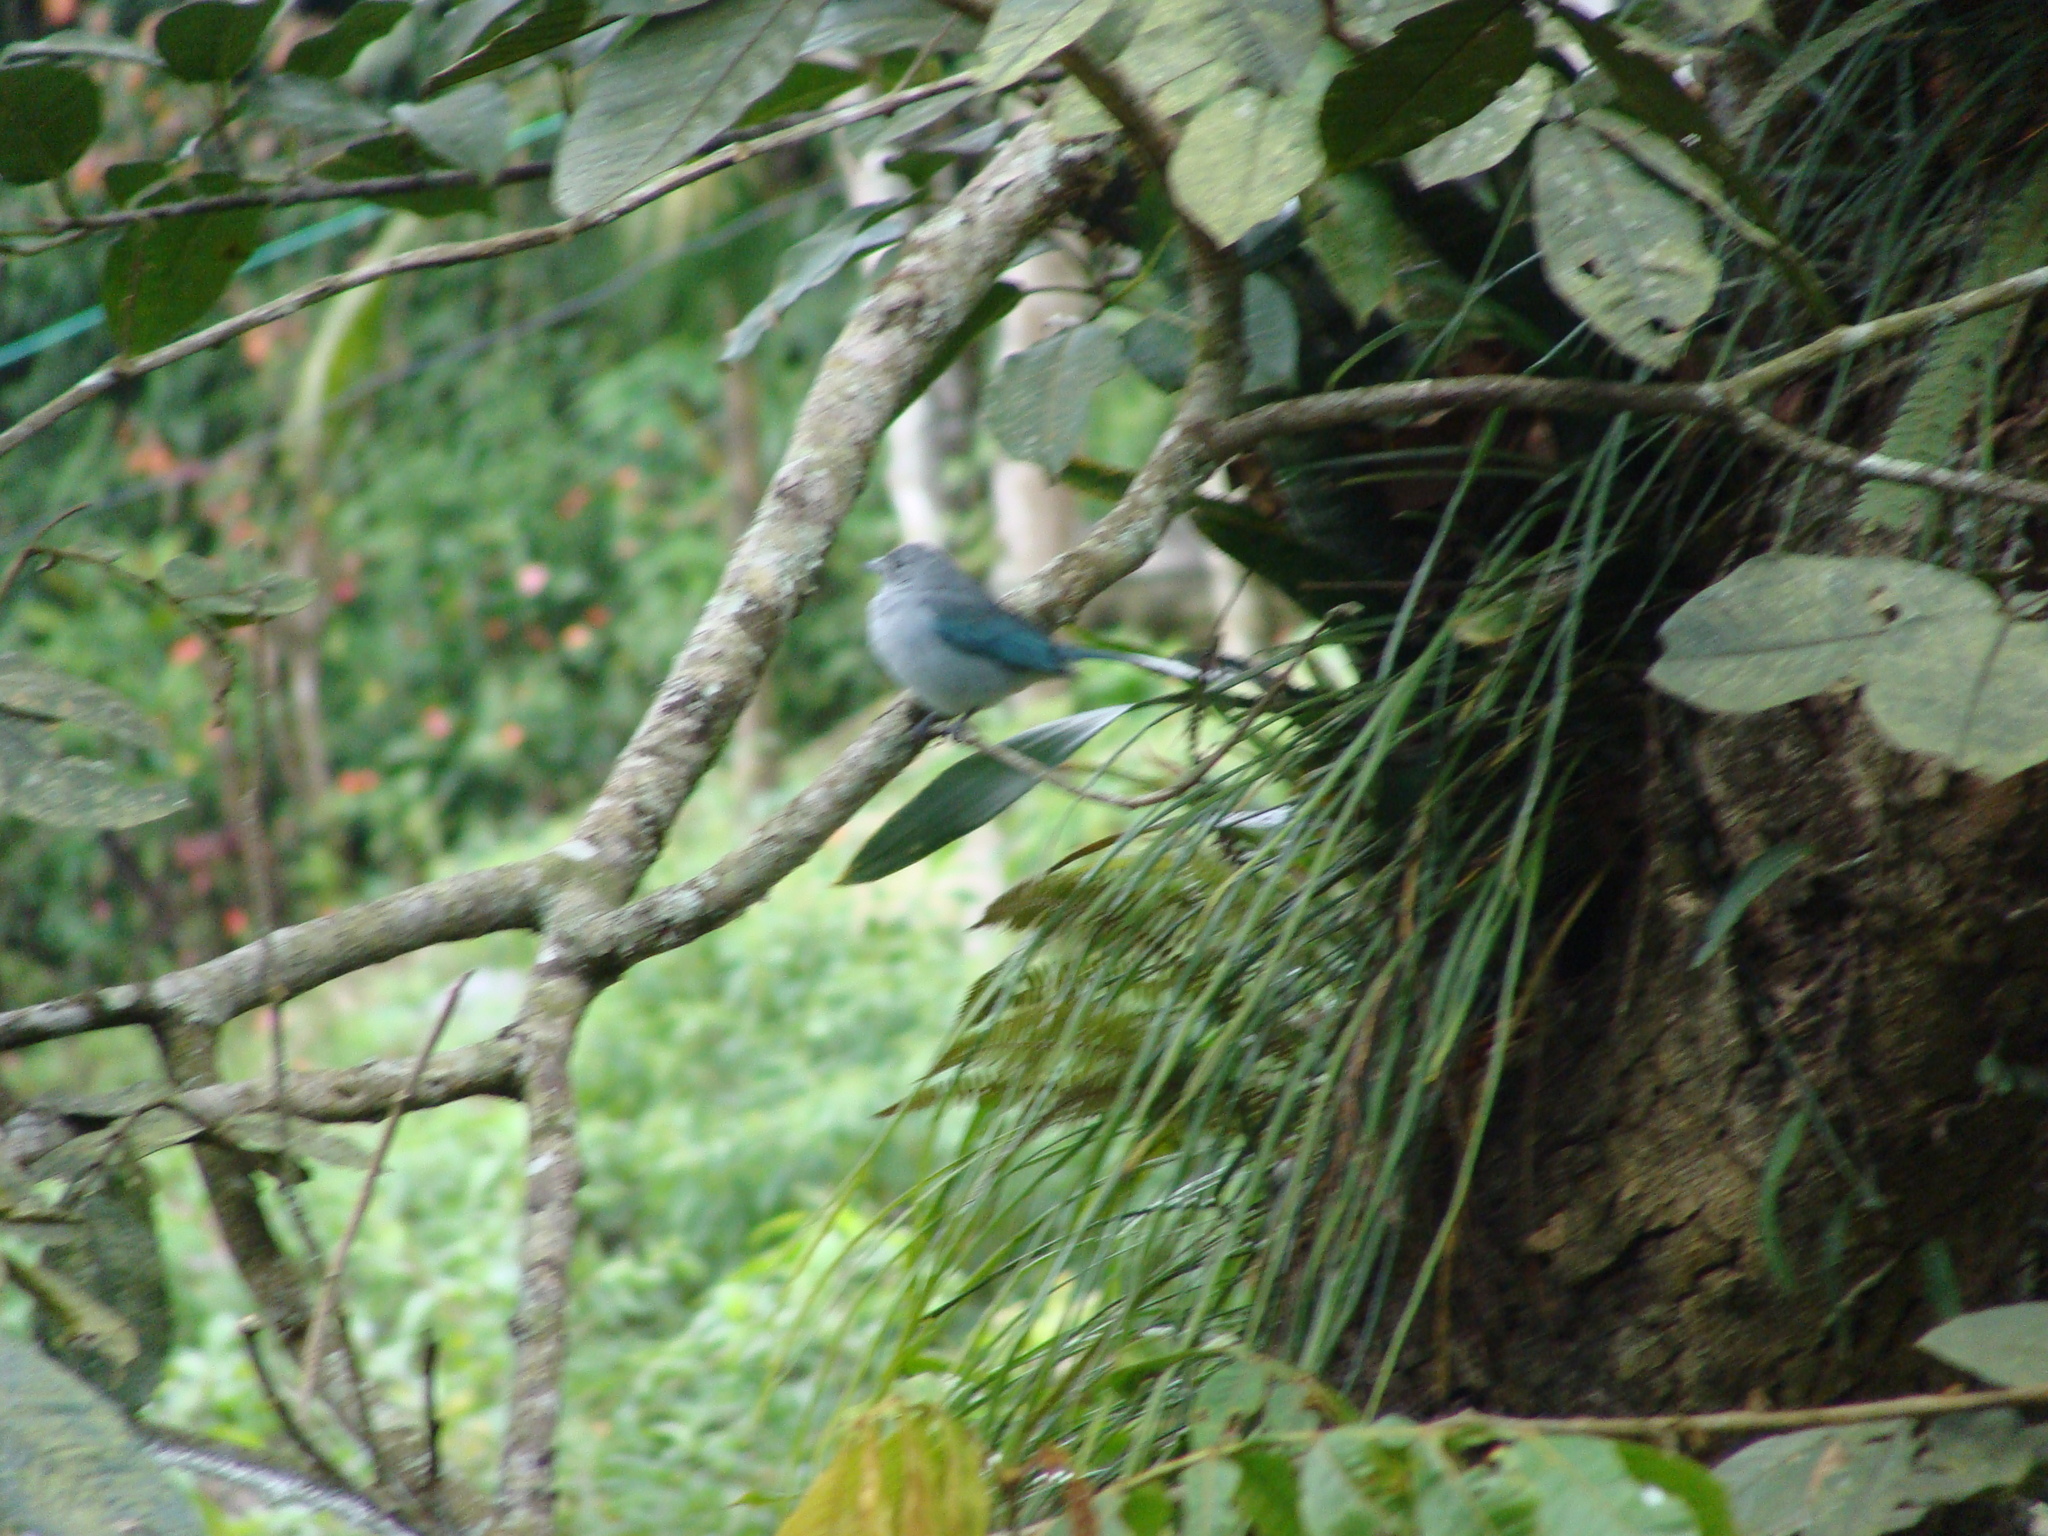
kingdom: Animalia
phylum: Chordata
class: Aves
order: Passeriformes
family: Thraupidae
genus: Thraupis
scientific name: Thraupis sayaca
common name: Sayaca tanager
